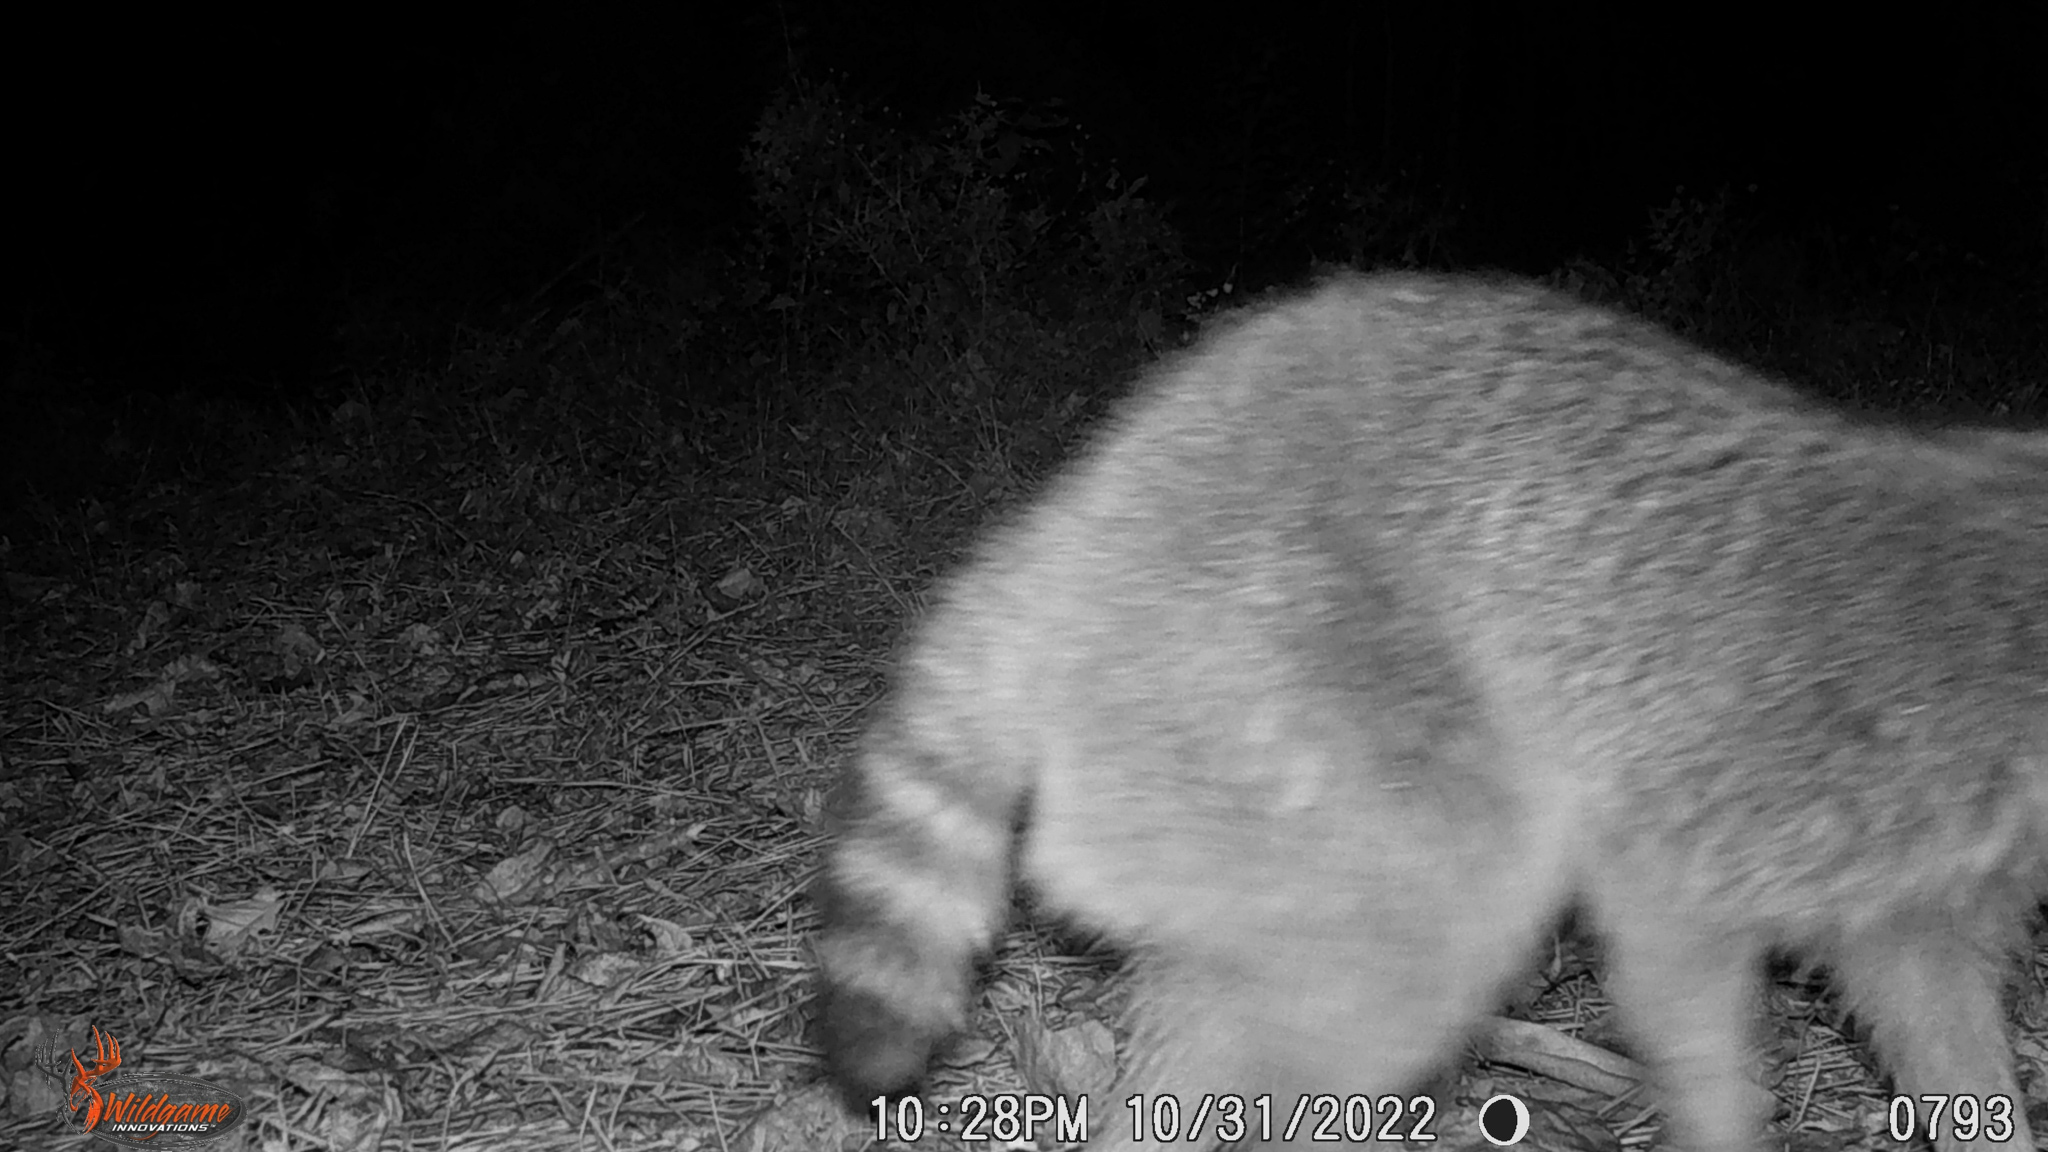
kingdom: Animalia
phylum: Chordata
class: Mammalia
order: Carnivora
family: Procyonidae
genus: Procyon
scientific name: Procyon lotor
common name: Raccoon
